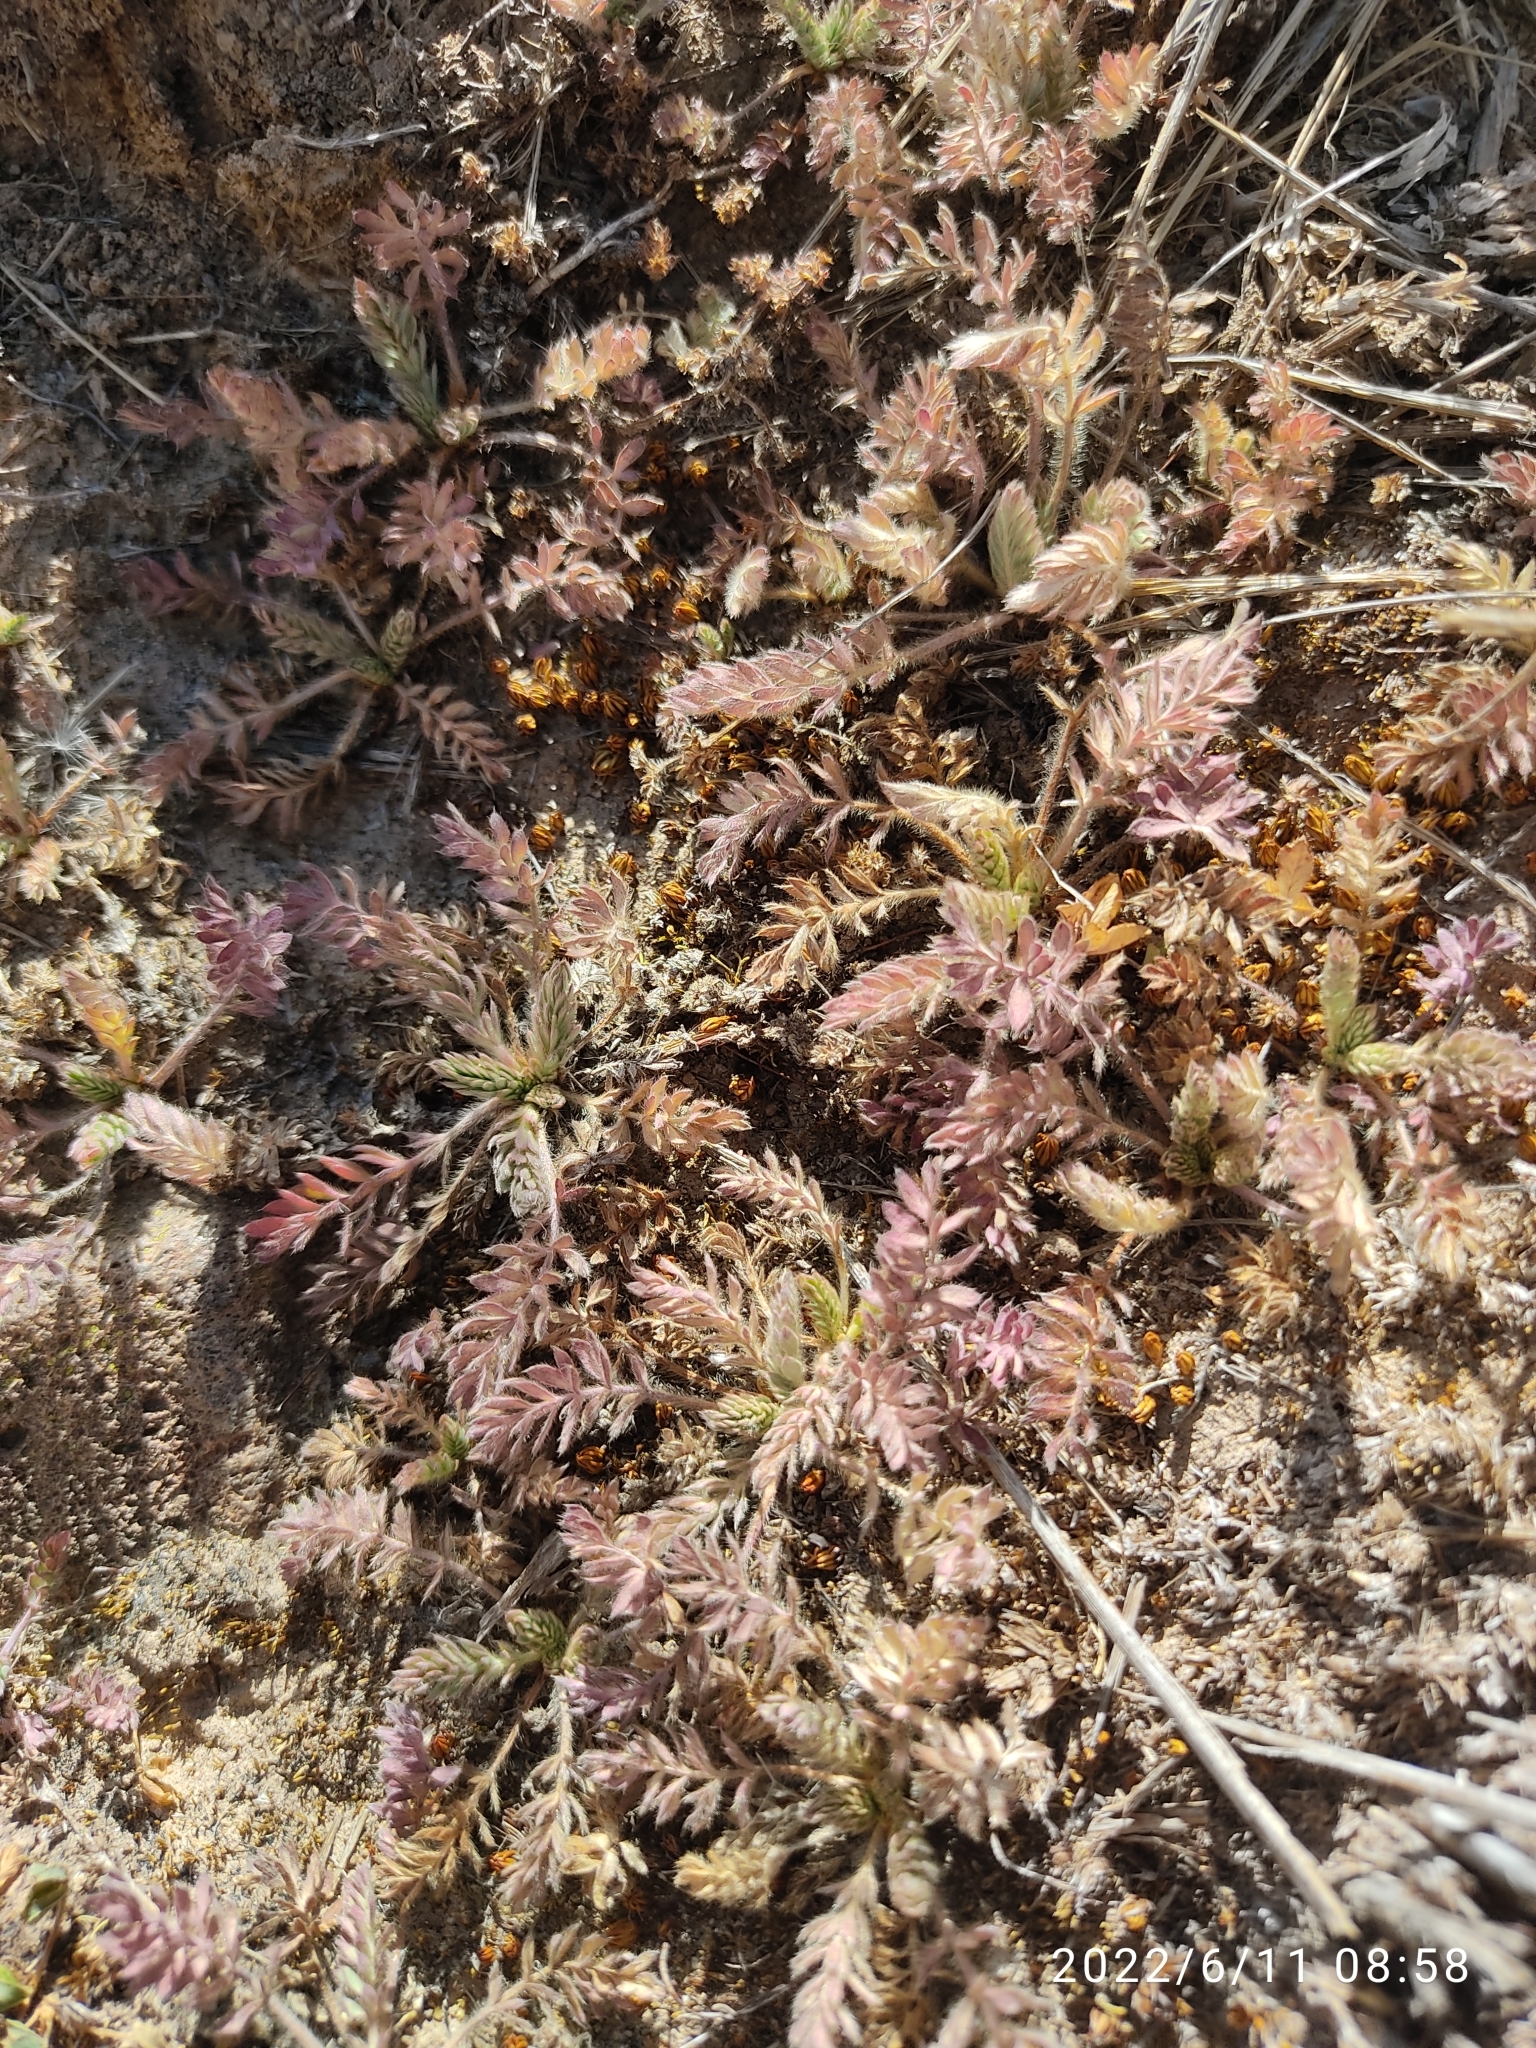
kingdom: Plantae
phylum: Tracheophyta
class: Magnoliopsida
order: Rosales
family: Rosaceae
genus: Lachemilla
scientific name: Lachemilla
